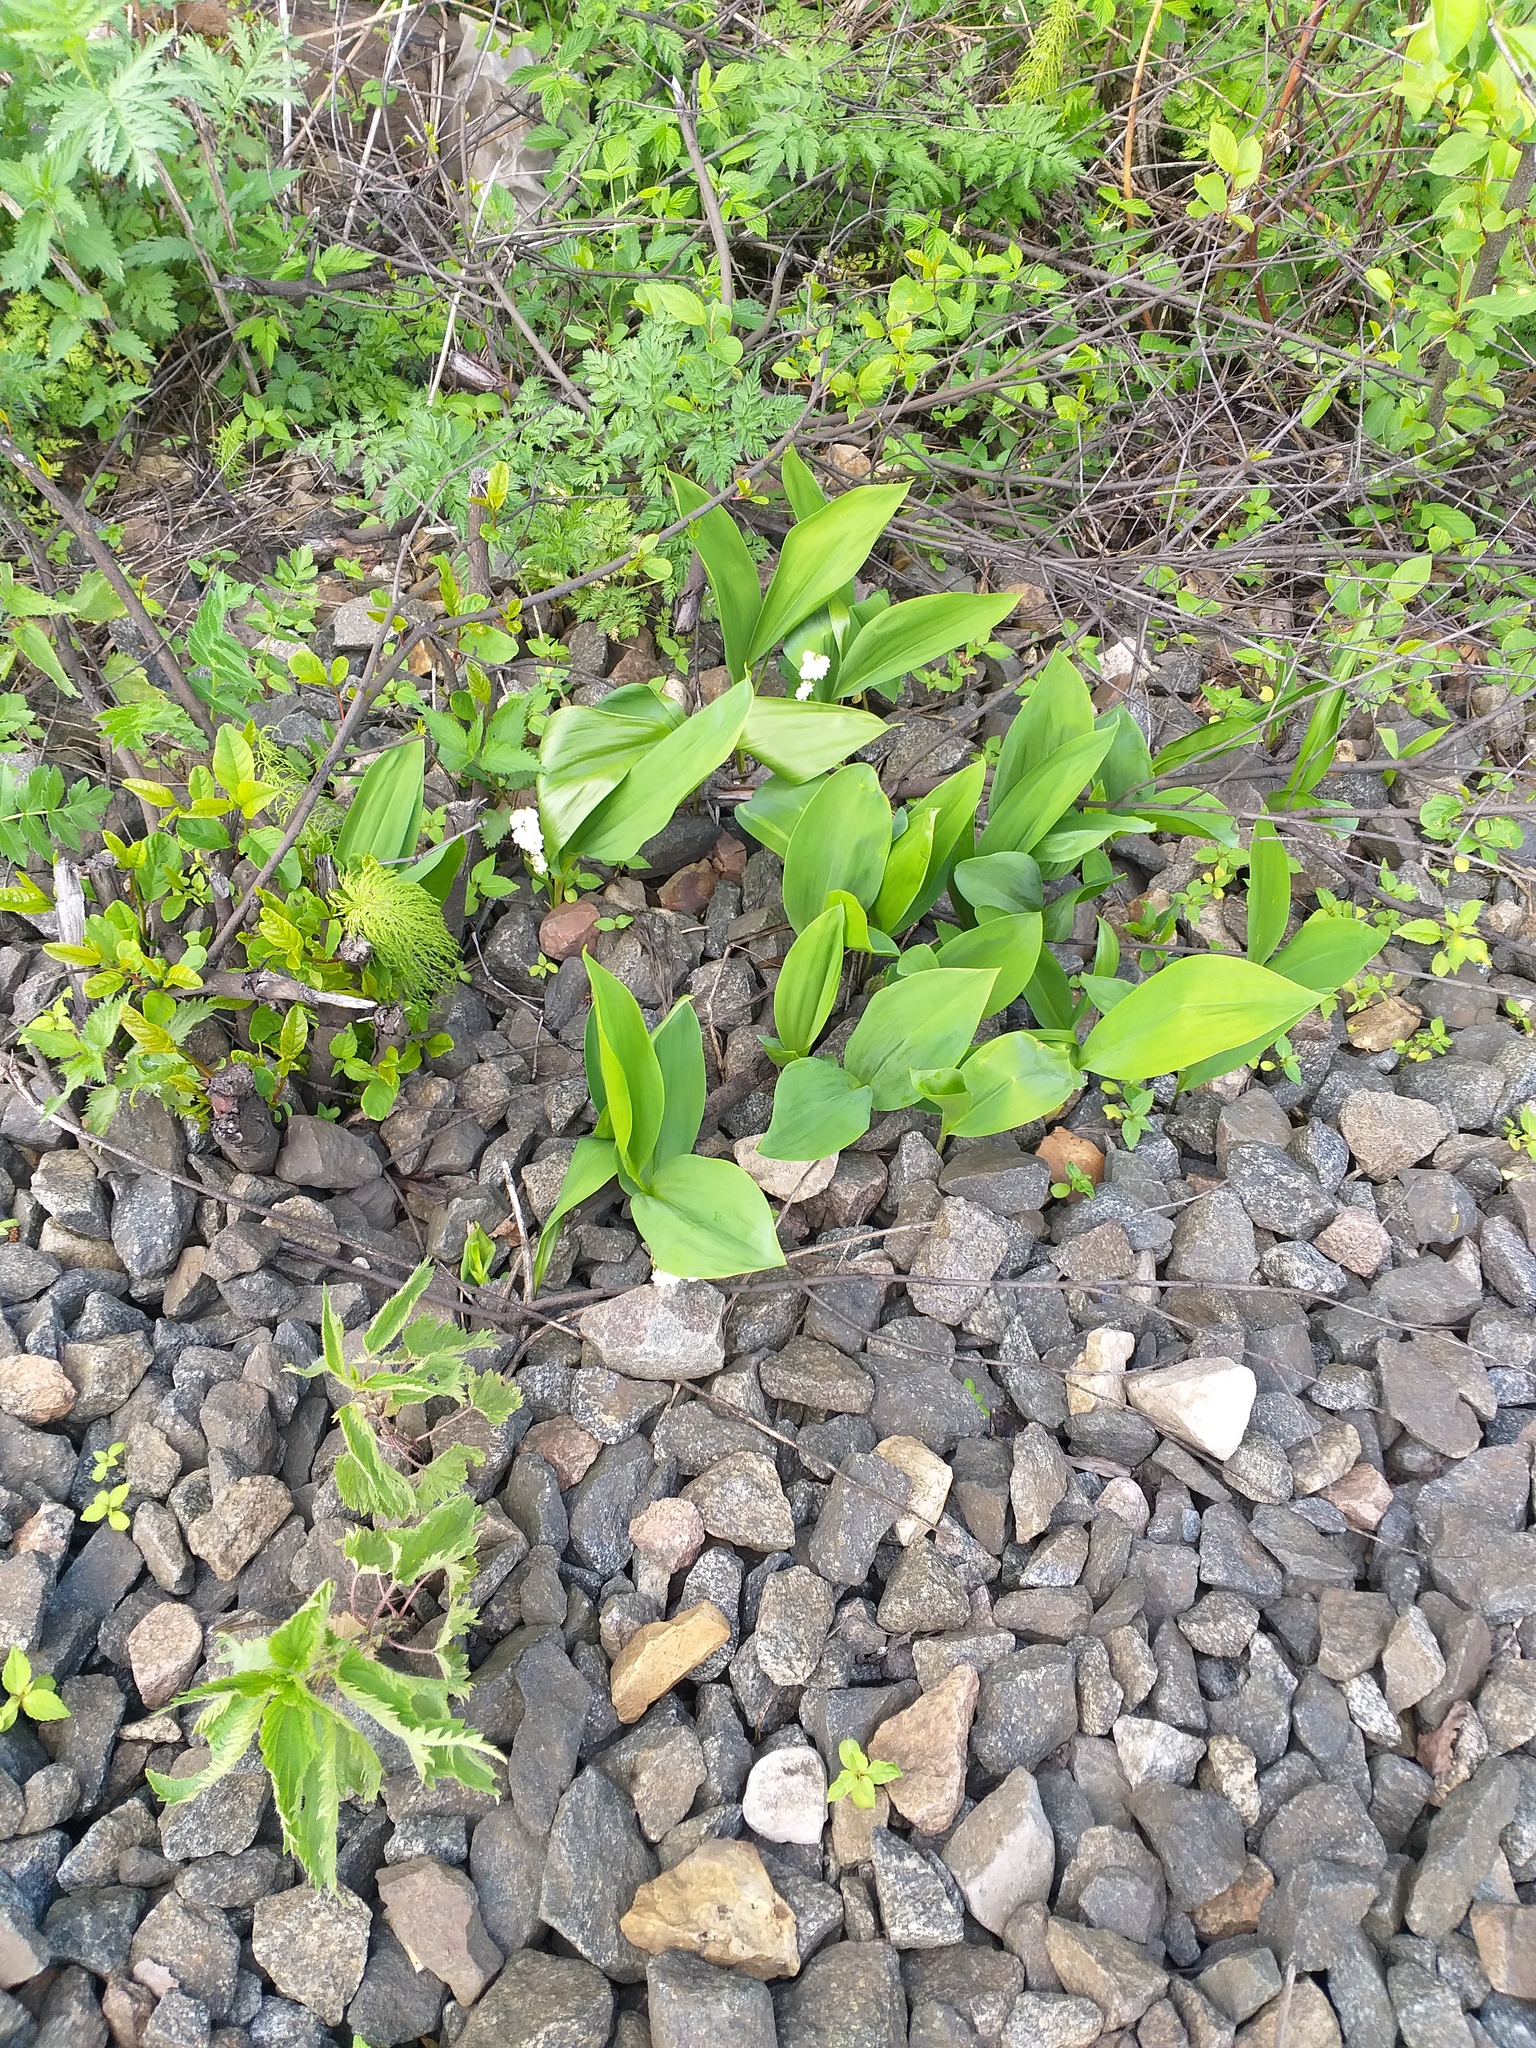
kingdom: Plantae
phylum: Tracheophyta
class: Liliopsida
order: Asparagales
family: Asparagaceae
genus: Convallaria
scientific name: Convallaria majalis
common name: Lily-of-the-valley
